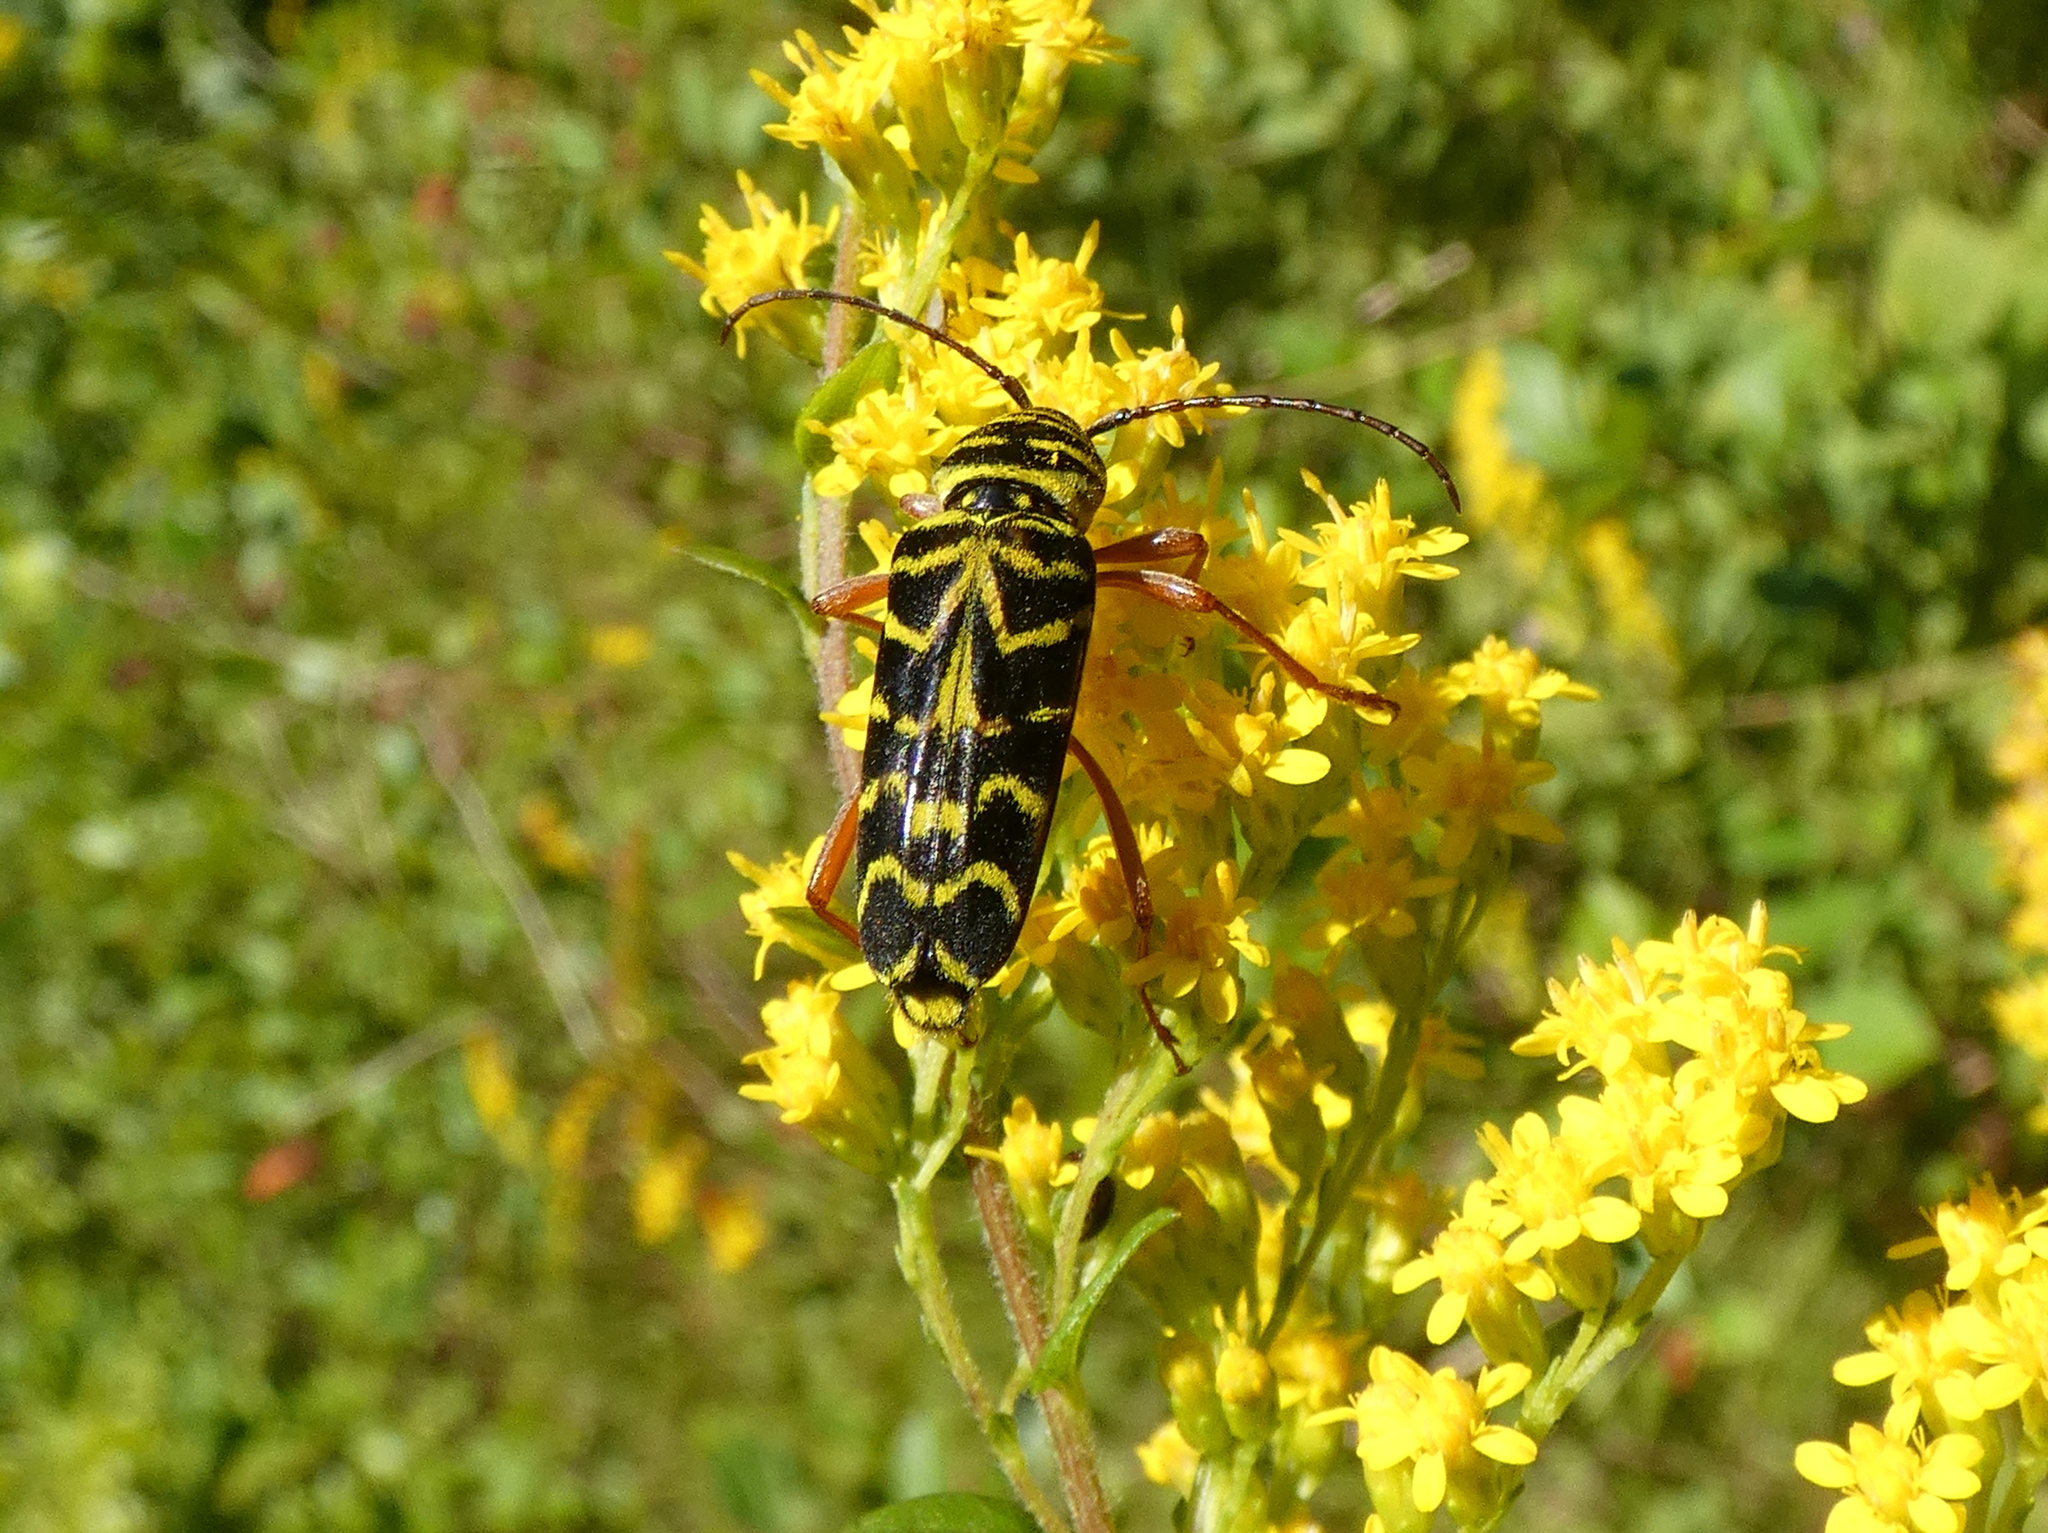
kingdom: Animalia
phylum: Arthropoda
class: Insecta
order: Coleoptera
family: Cerambycidae
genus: Megacyllene
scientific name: Megacyllene robiniae
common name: Locust borer
